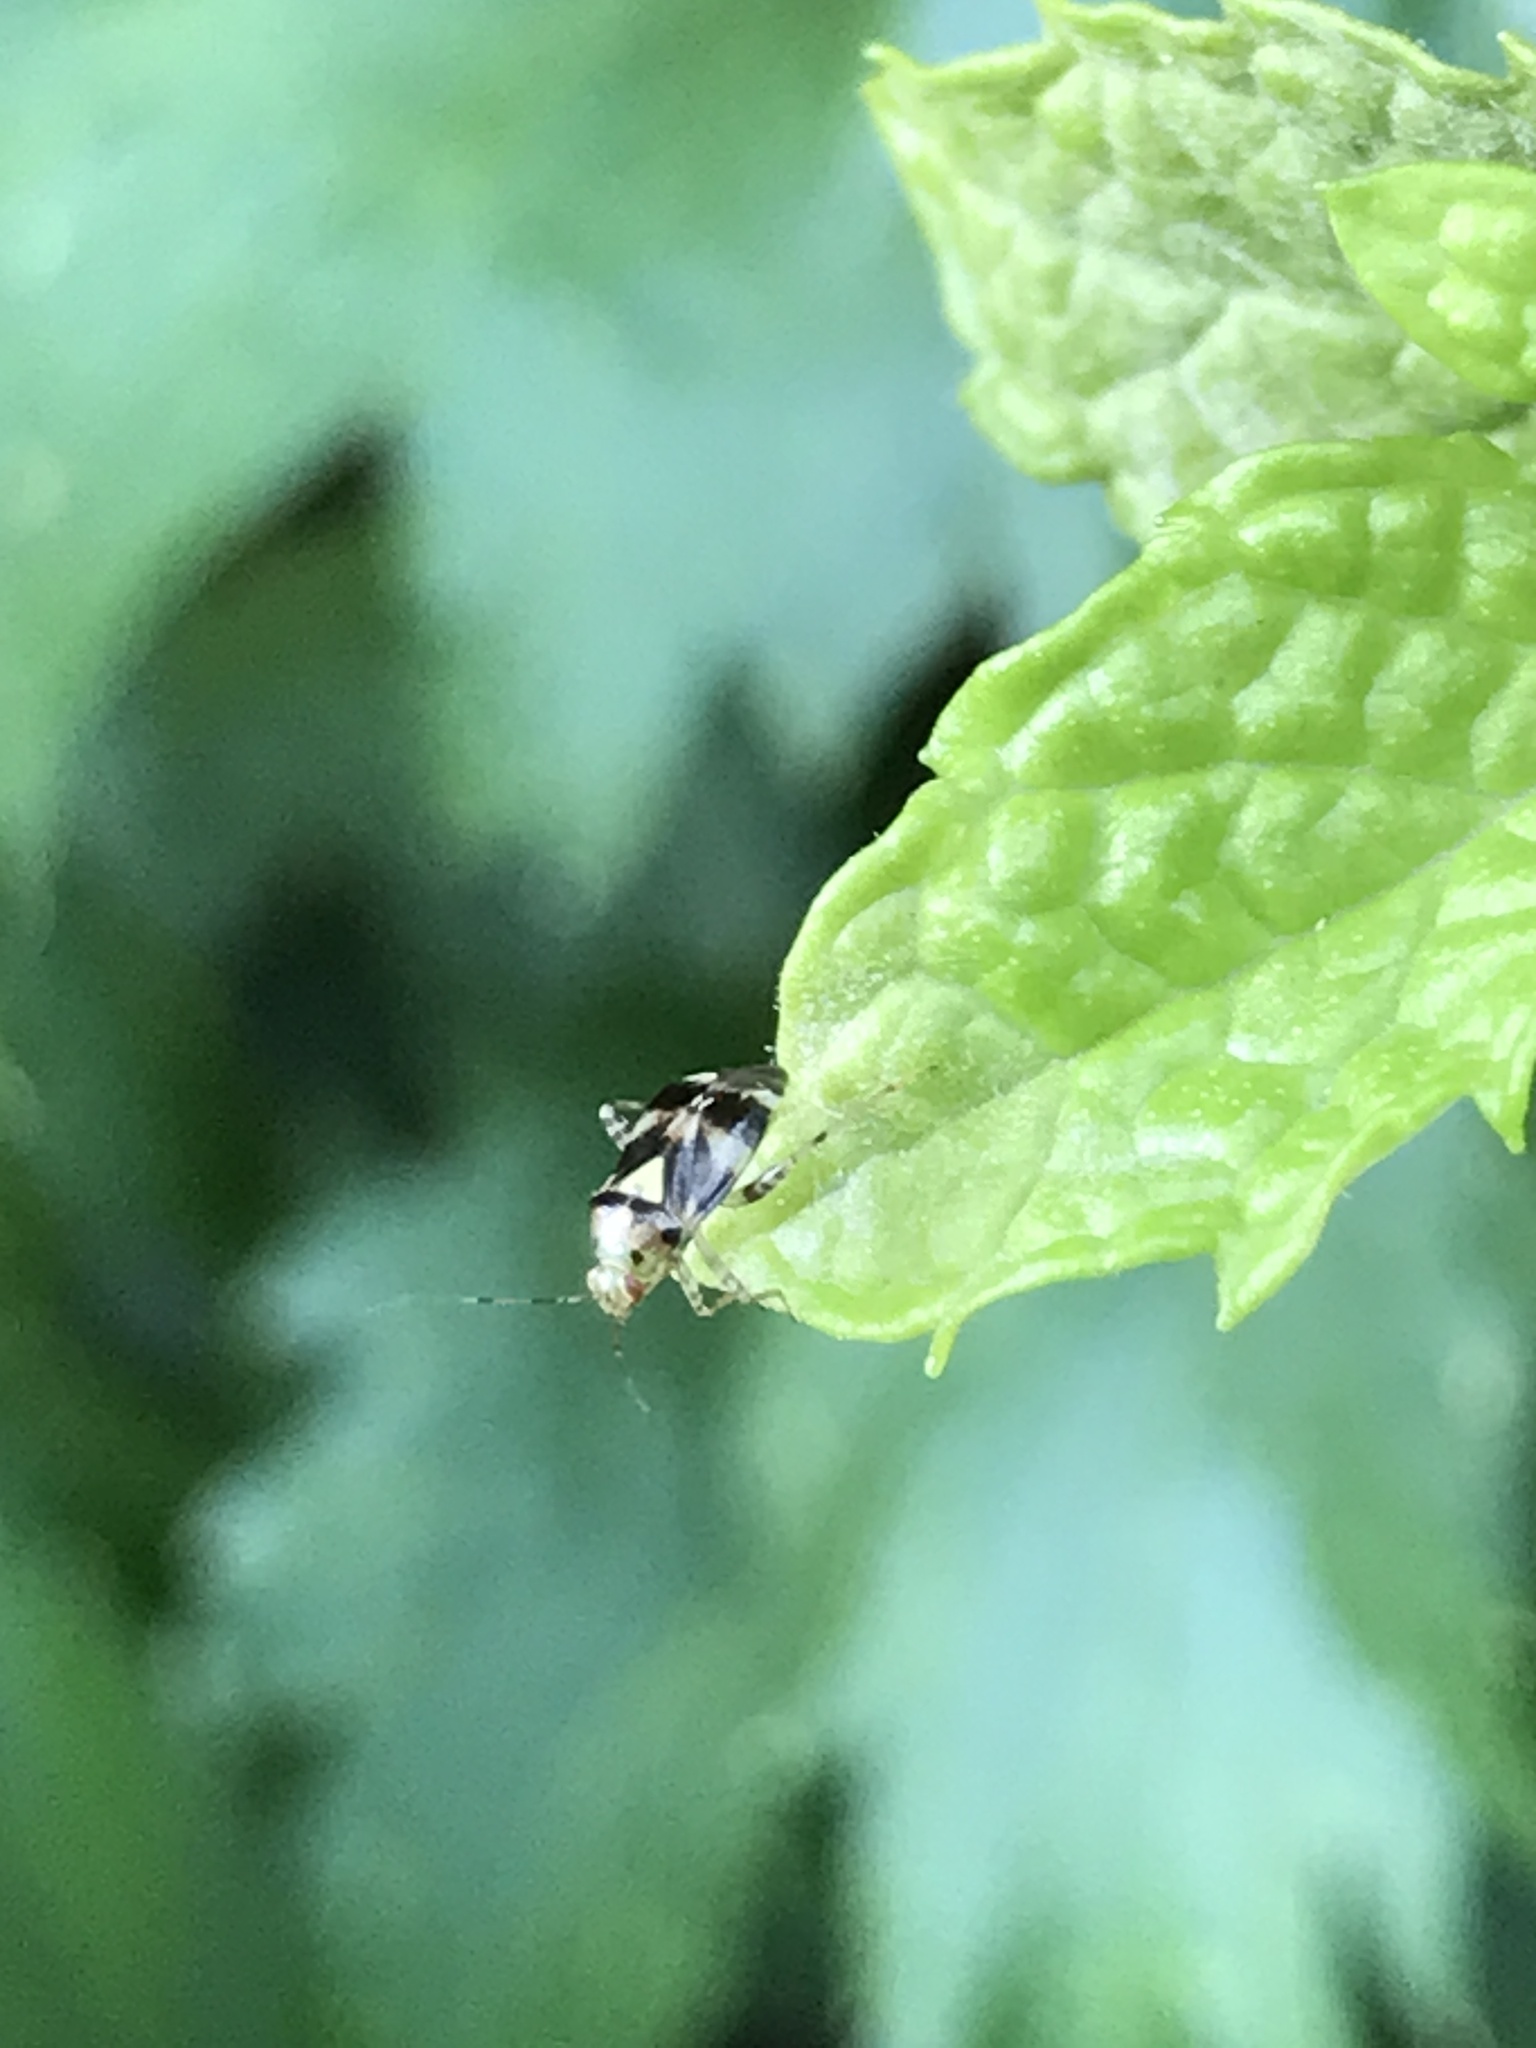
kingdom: Animalia
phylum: Arthropoda
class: Insecta
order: Hemiptera
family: Miridae
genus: Liocoris
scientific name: Liocoris tripustulatus
